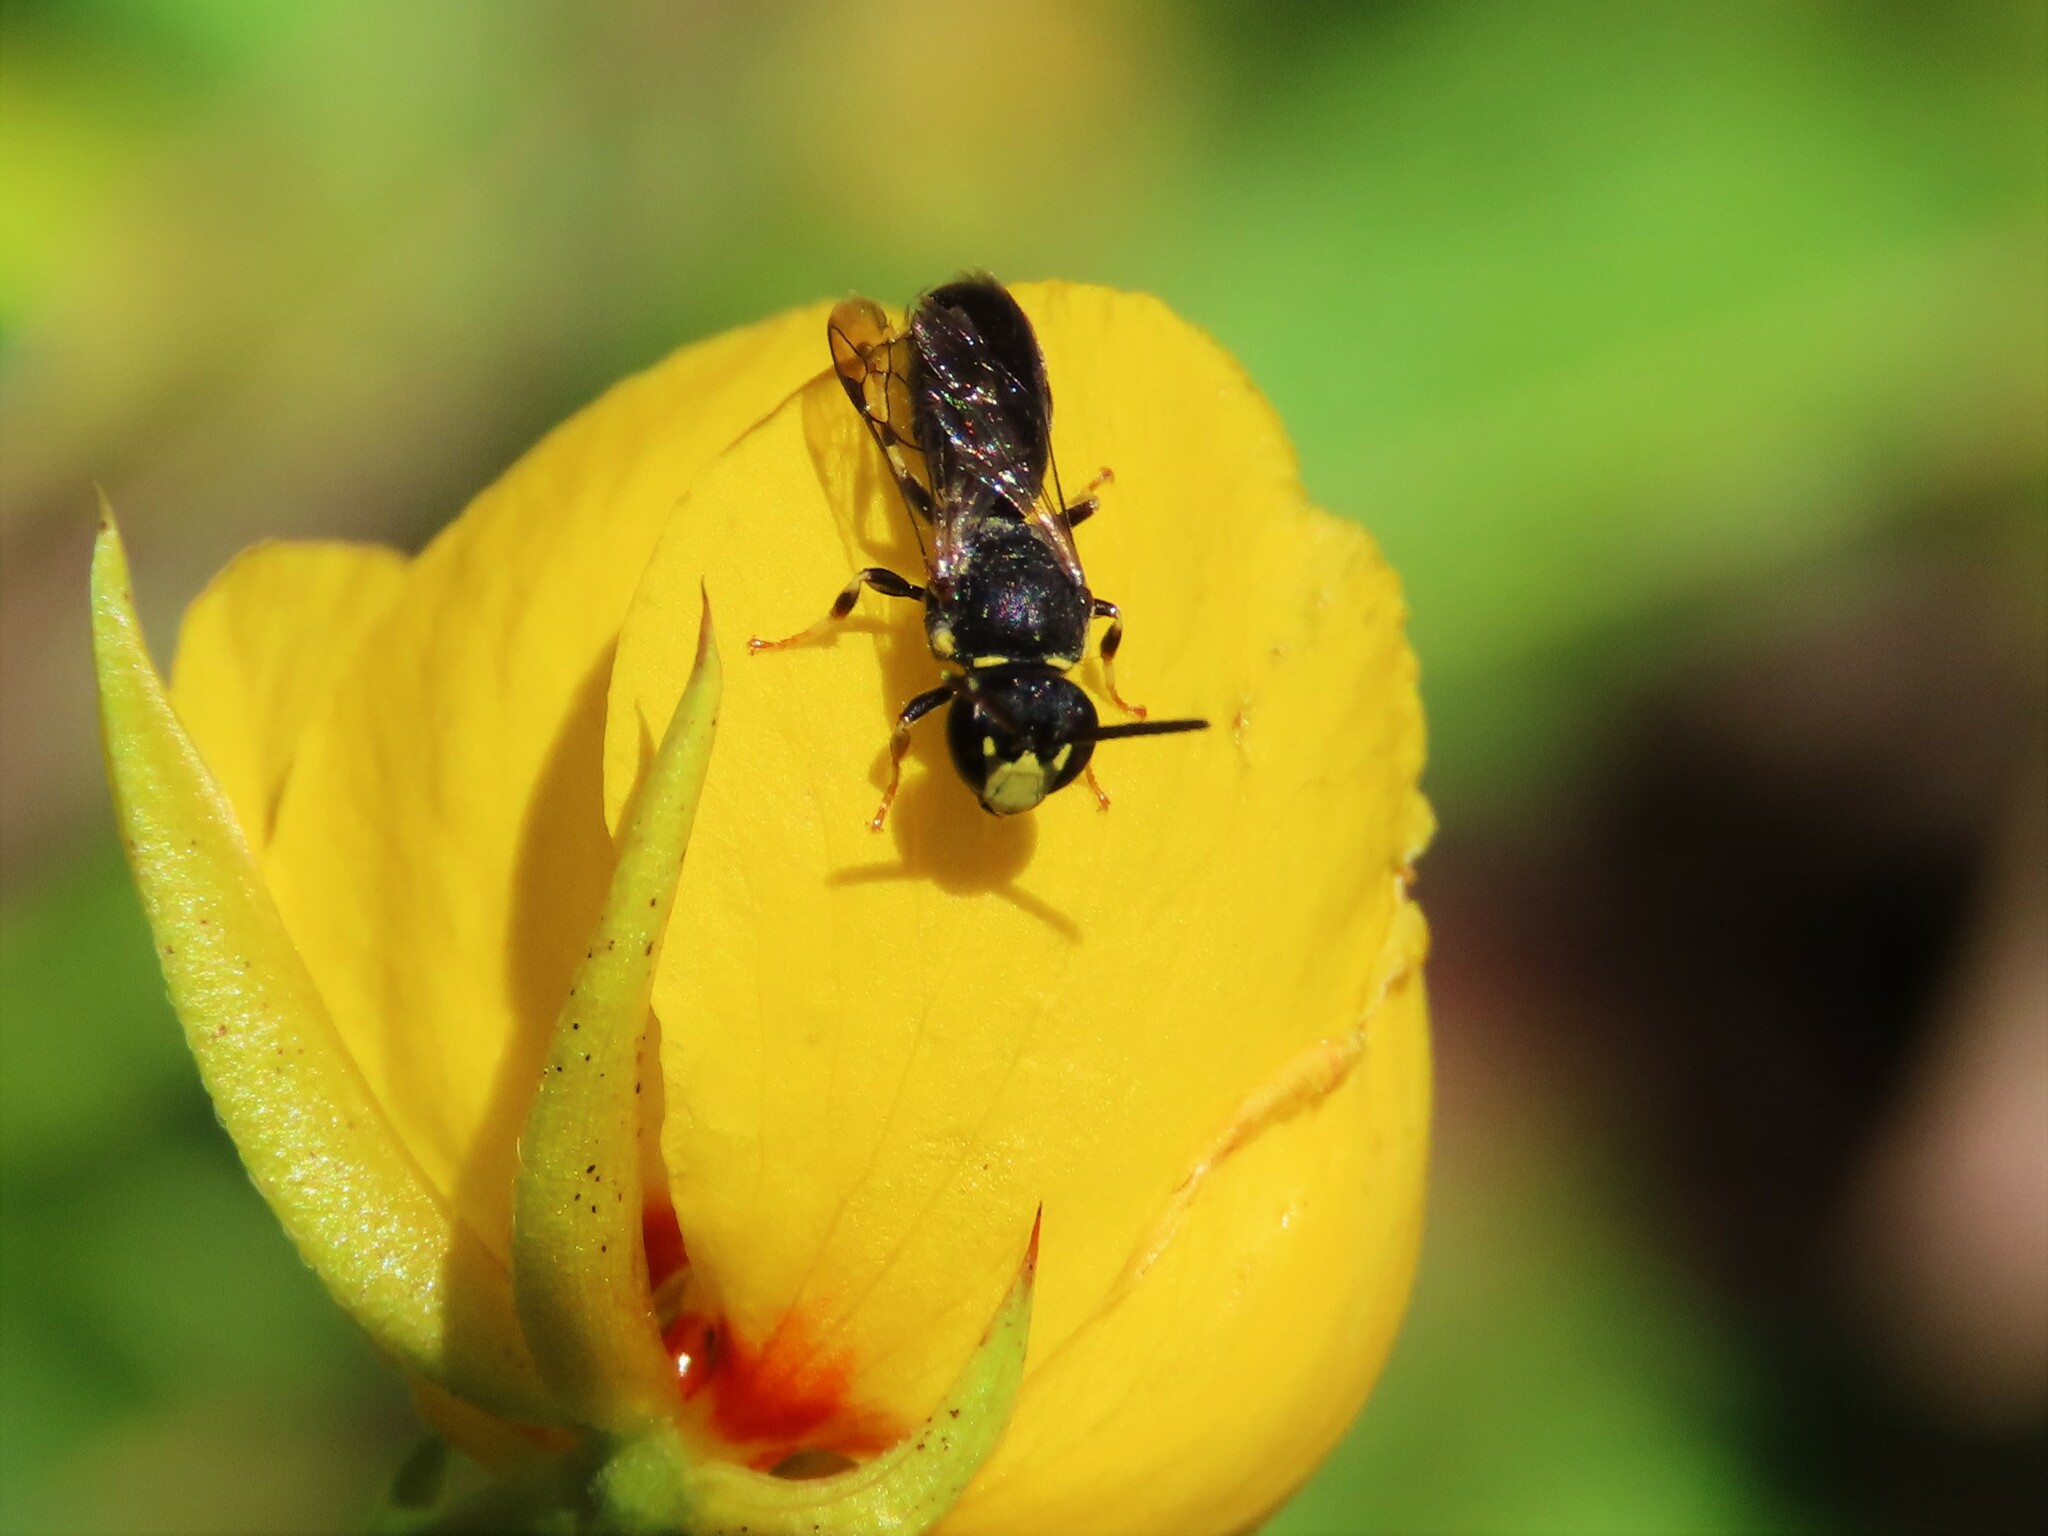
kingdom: Animalia
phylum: Arthropoda
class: Insecta
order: Hymenoptera
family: Colletidae
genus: Hylaeus
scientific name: Hylaeus modestus
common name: Yellow-faced bee
